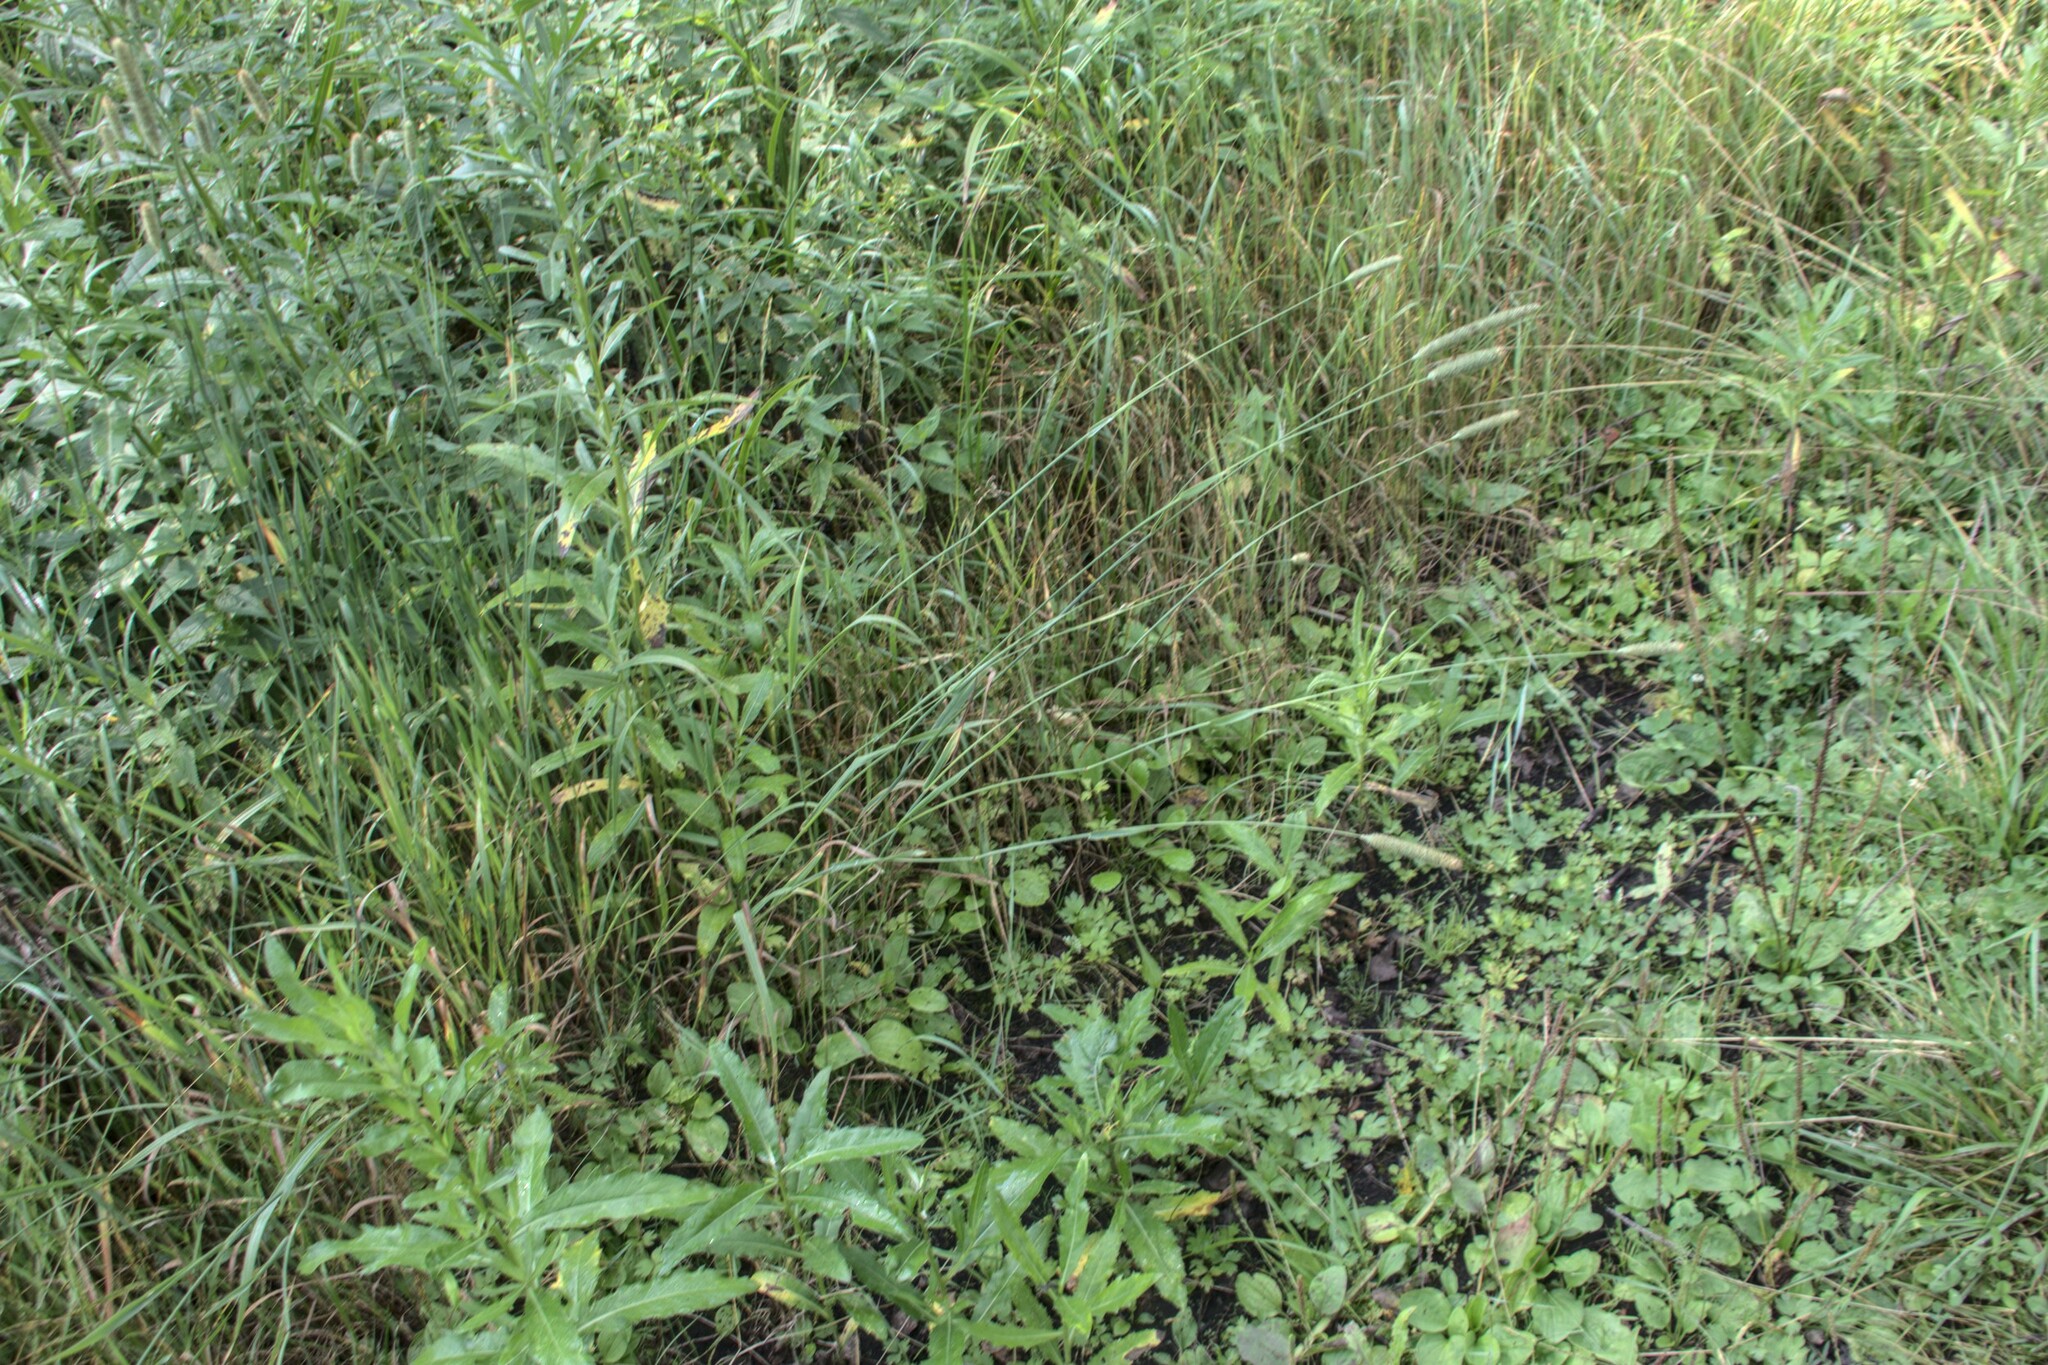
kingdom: Plantae
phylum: Tracheophyta
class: Liliopsida
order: Poales
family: Poaceae
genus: Phleum
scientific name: Phleum pratense
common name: Timothy grass
